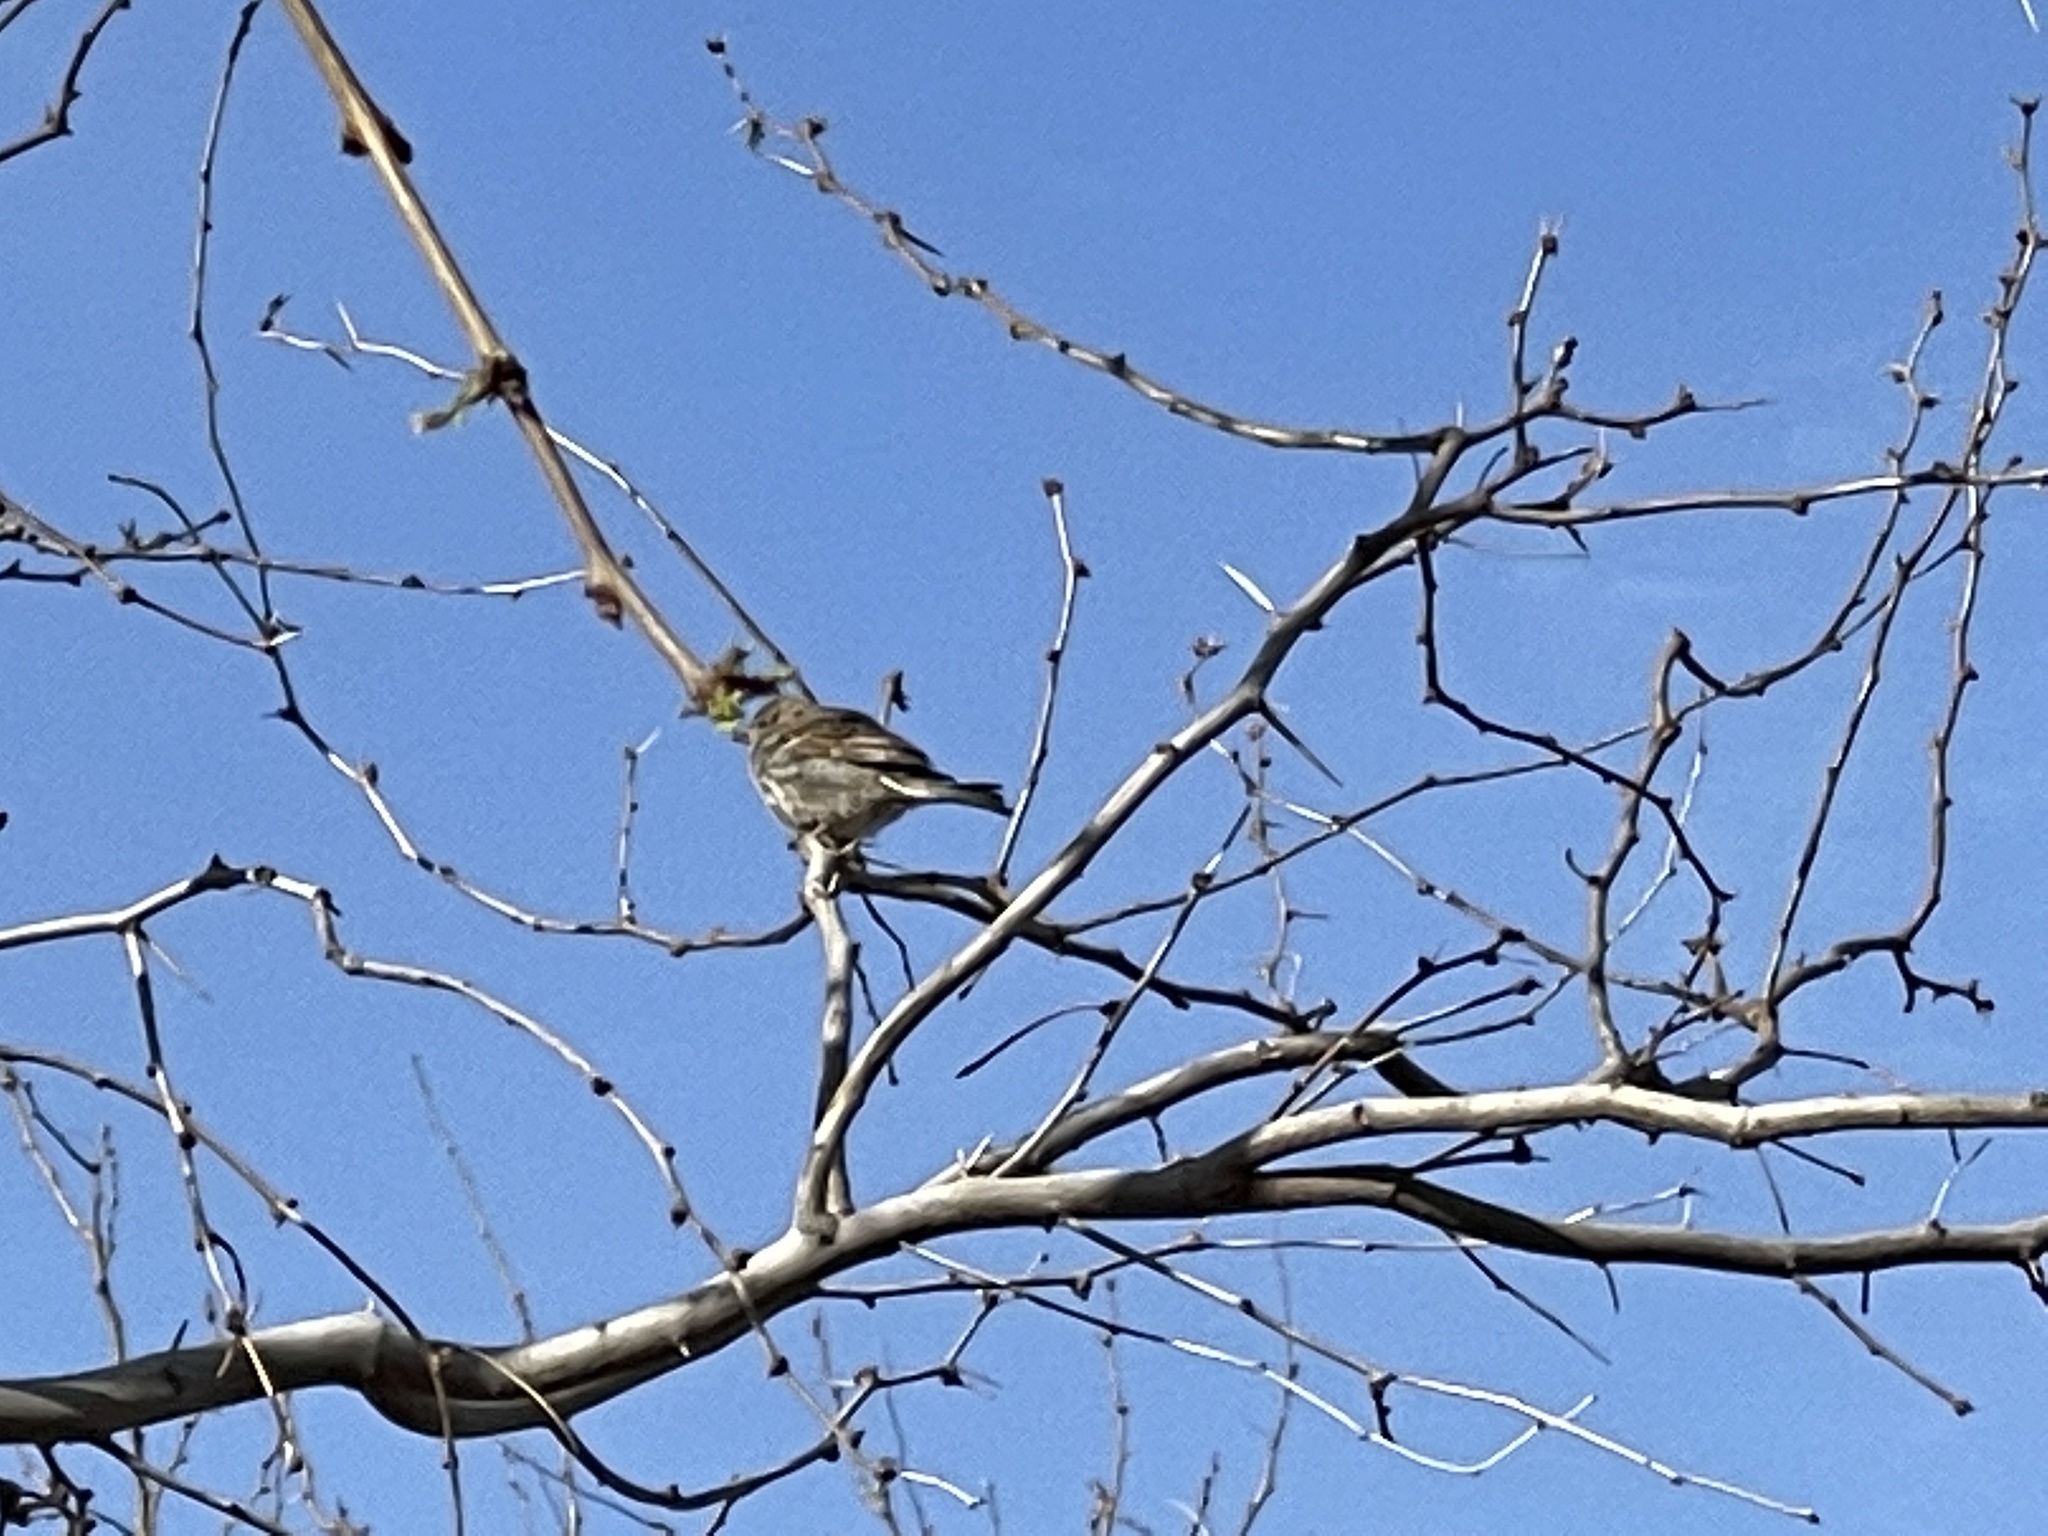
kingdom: Animalia
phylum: Chordata
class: Aves
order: Passeriformes
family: Passeridae
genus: Passer
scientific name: Passer domesticus
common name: House sparrow
